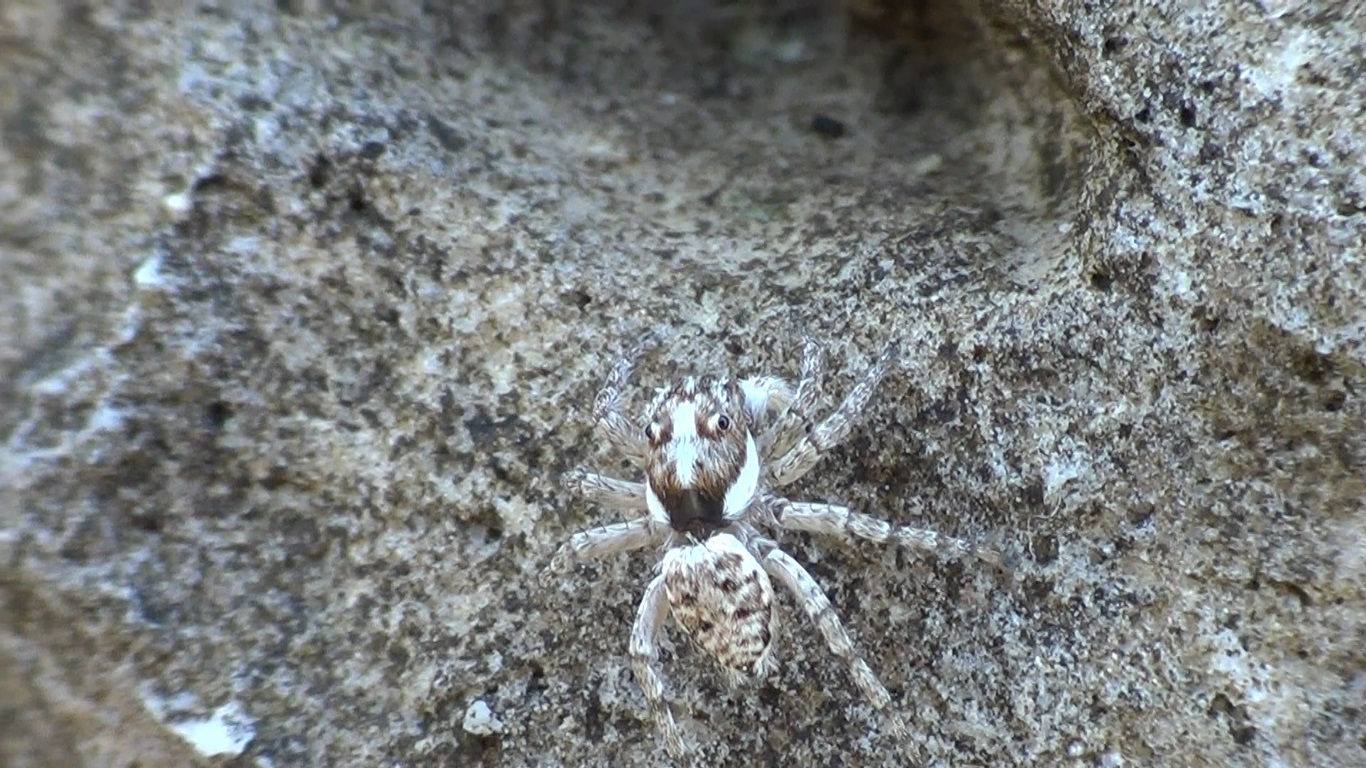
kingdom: Animalia
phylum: Arthropoda
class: Arachnida
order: Araneae
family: Salticidae
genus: Menemerus
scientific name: Menemerus semilimbatus
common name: Jumping spider
